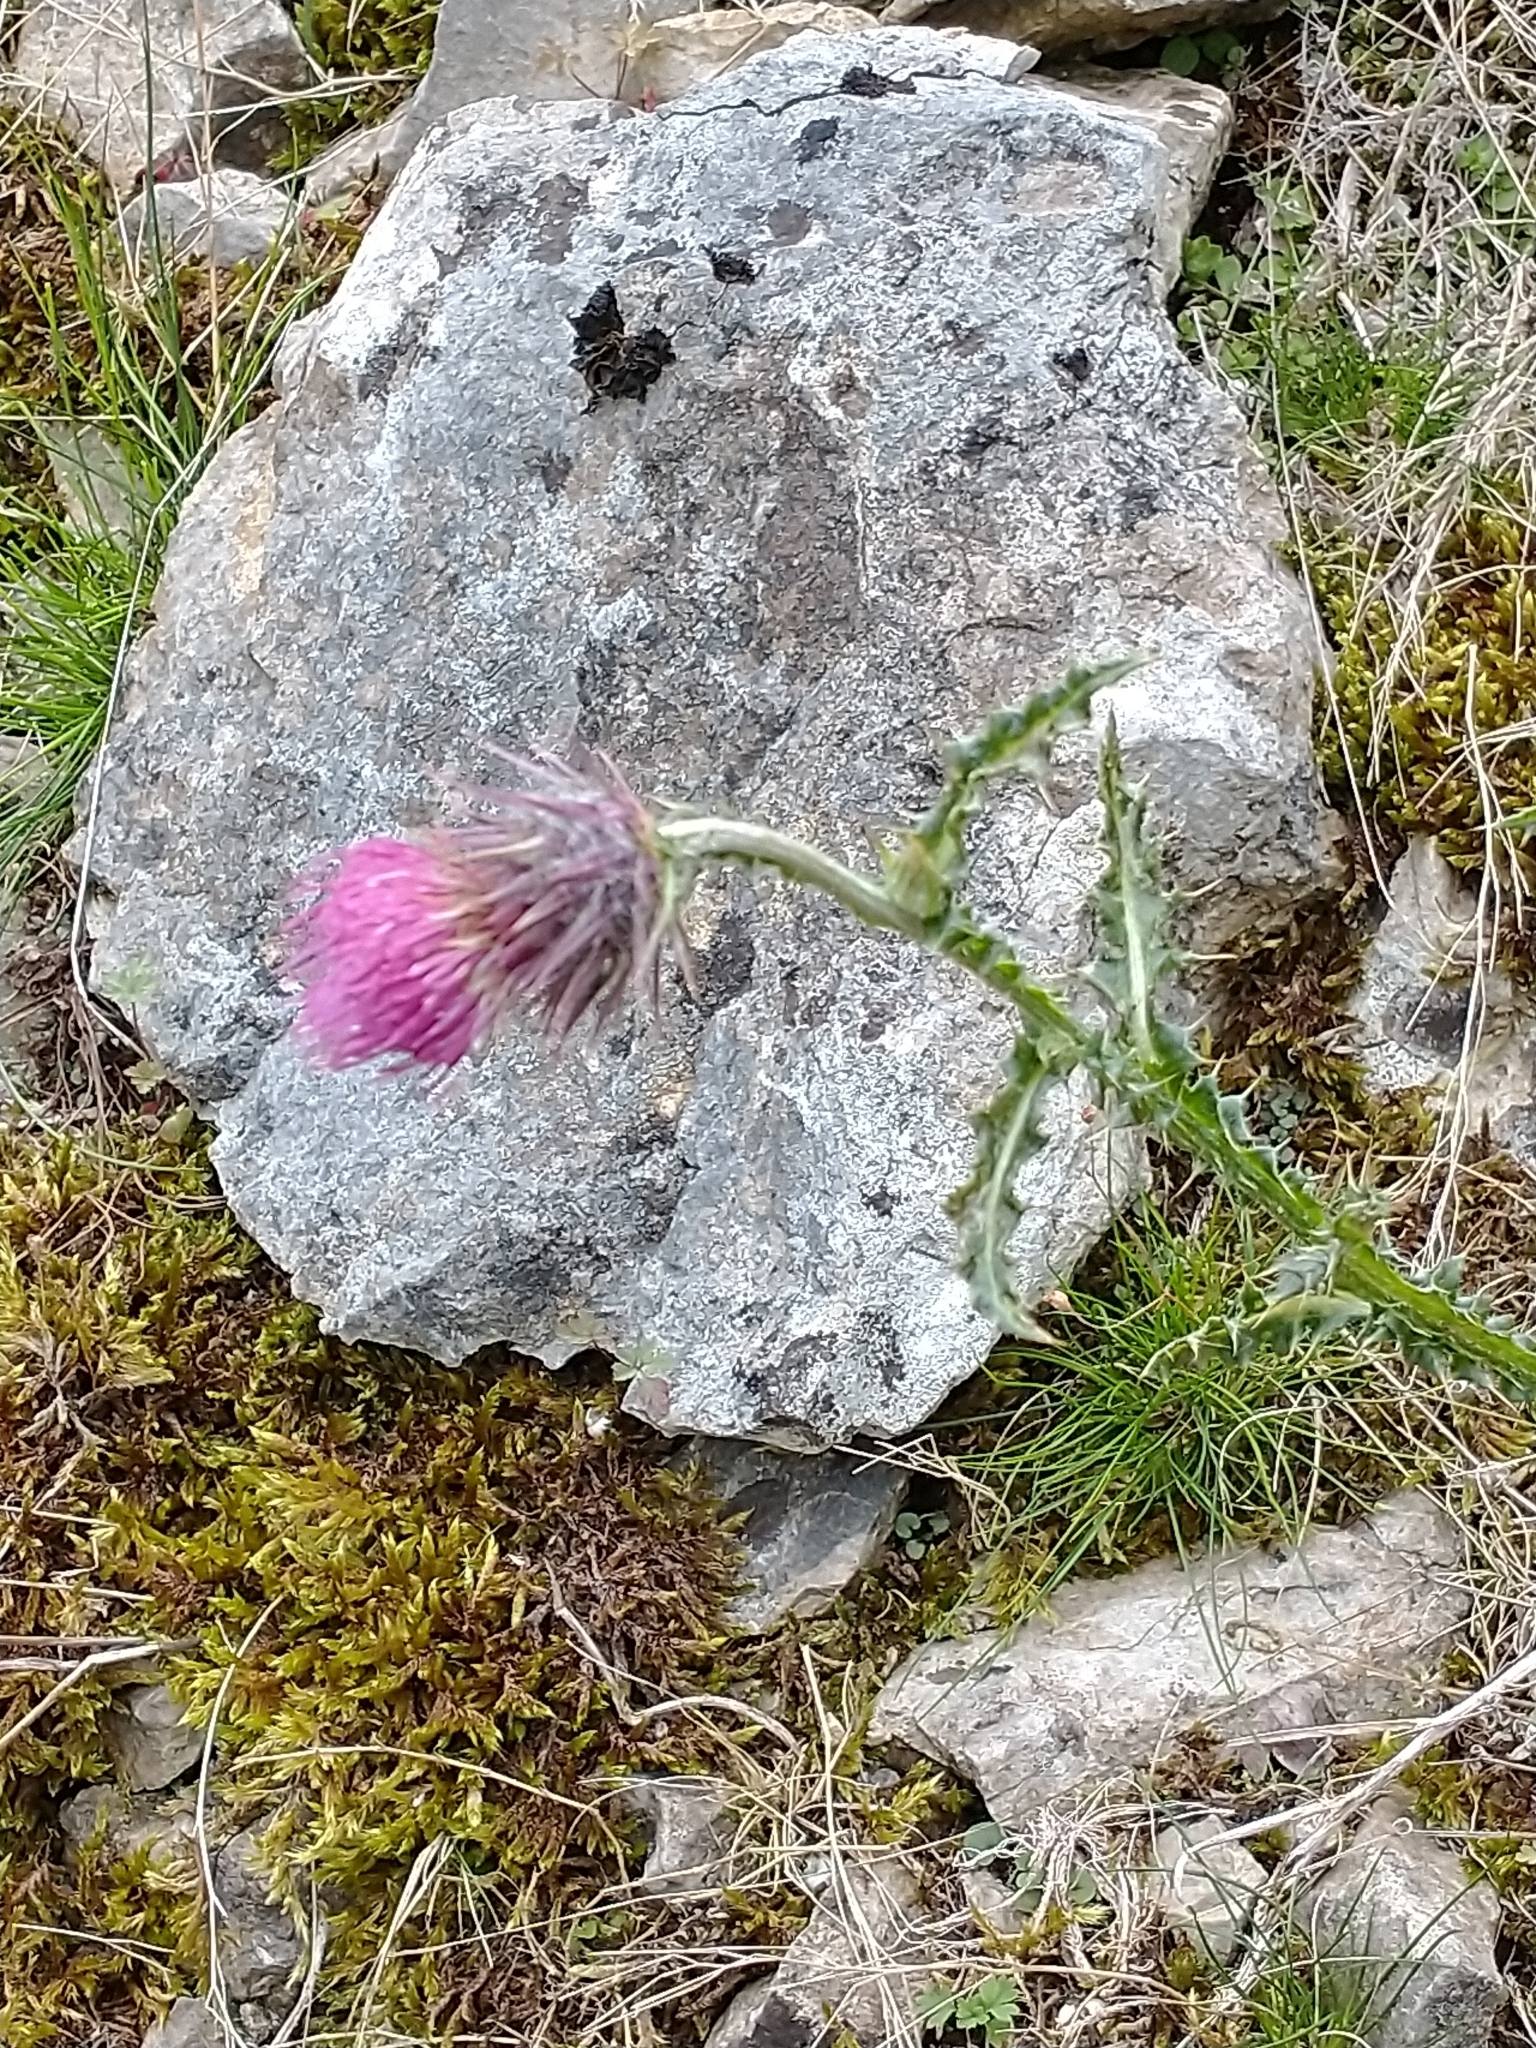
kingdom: Plantae
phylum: Tracheophyta
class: Magnoliopsida
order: Asterales
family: Asteraceae
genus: Carduus
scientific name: Carduus nutans
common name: Musk thistle
